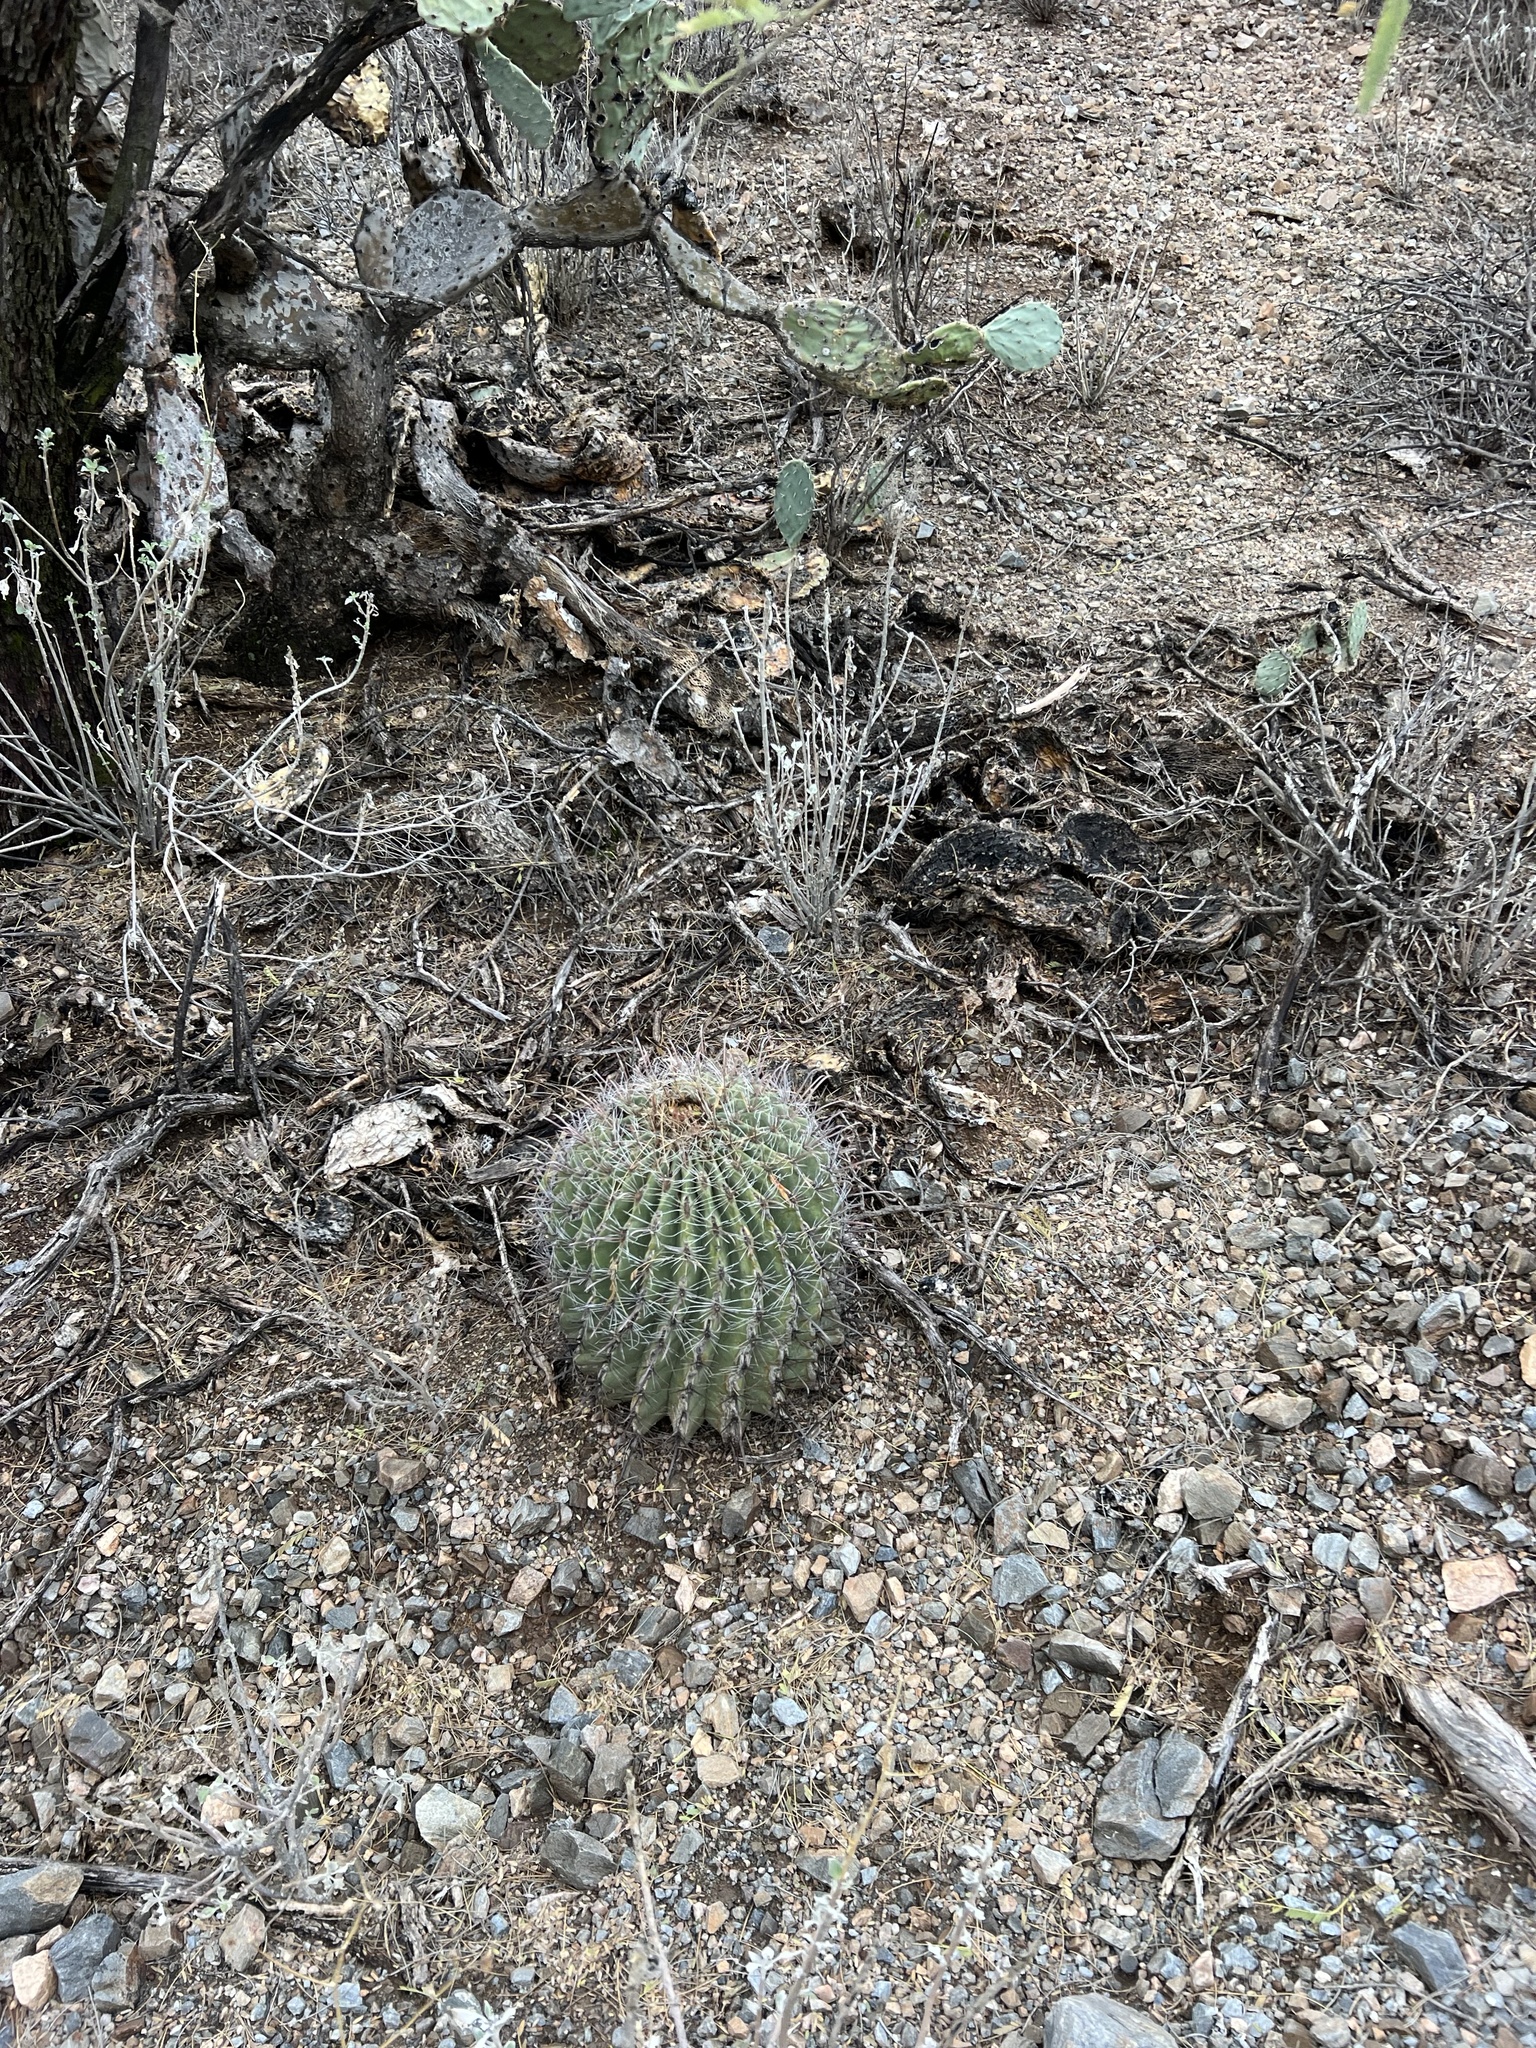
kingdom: Plantae
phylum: Tracheophyta
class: Magnoliopsida
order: Caryophyllales
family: Cactaceae
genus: Ferocactus
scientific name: Ferocactus wislizeni
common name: Candy barrel cactus
